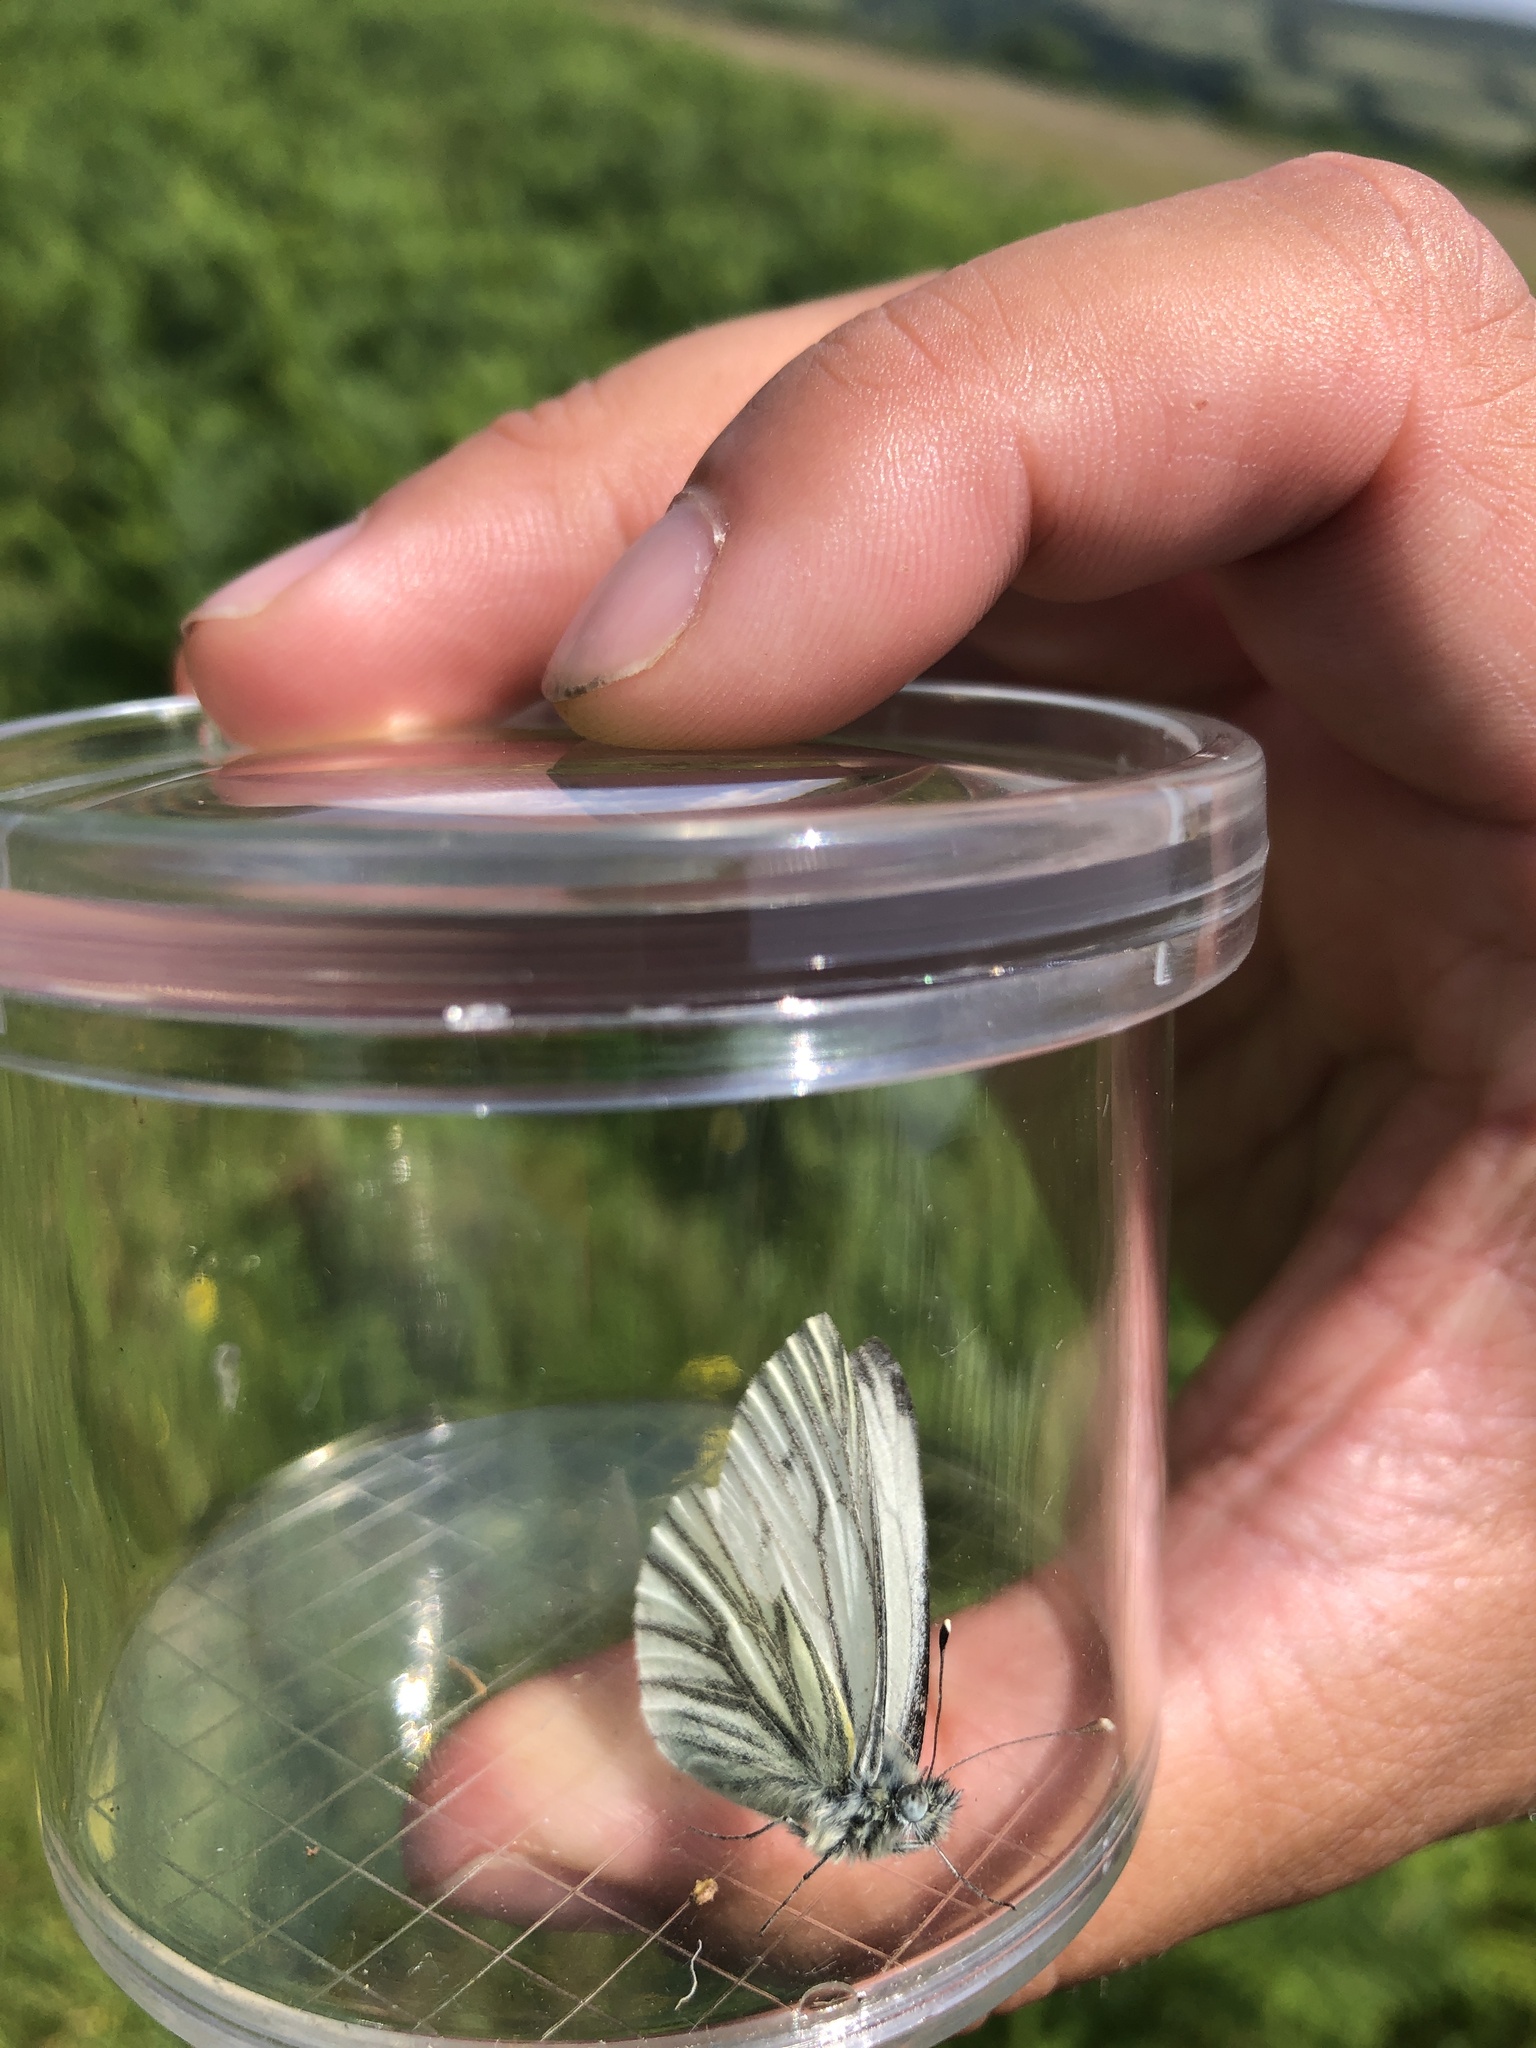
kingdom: Animalia
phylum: Arthropoda
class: Insecta
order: Lepidoptera
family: Pieridae
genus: Pieris
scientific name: Pieris napi
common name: Green-veined white
